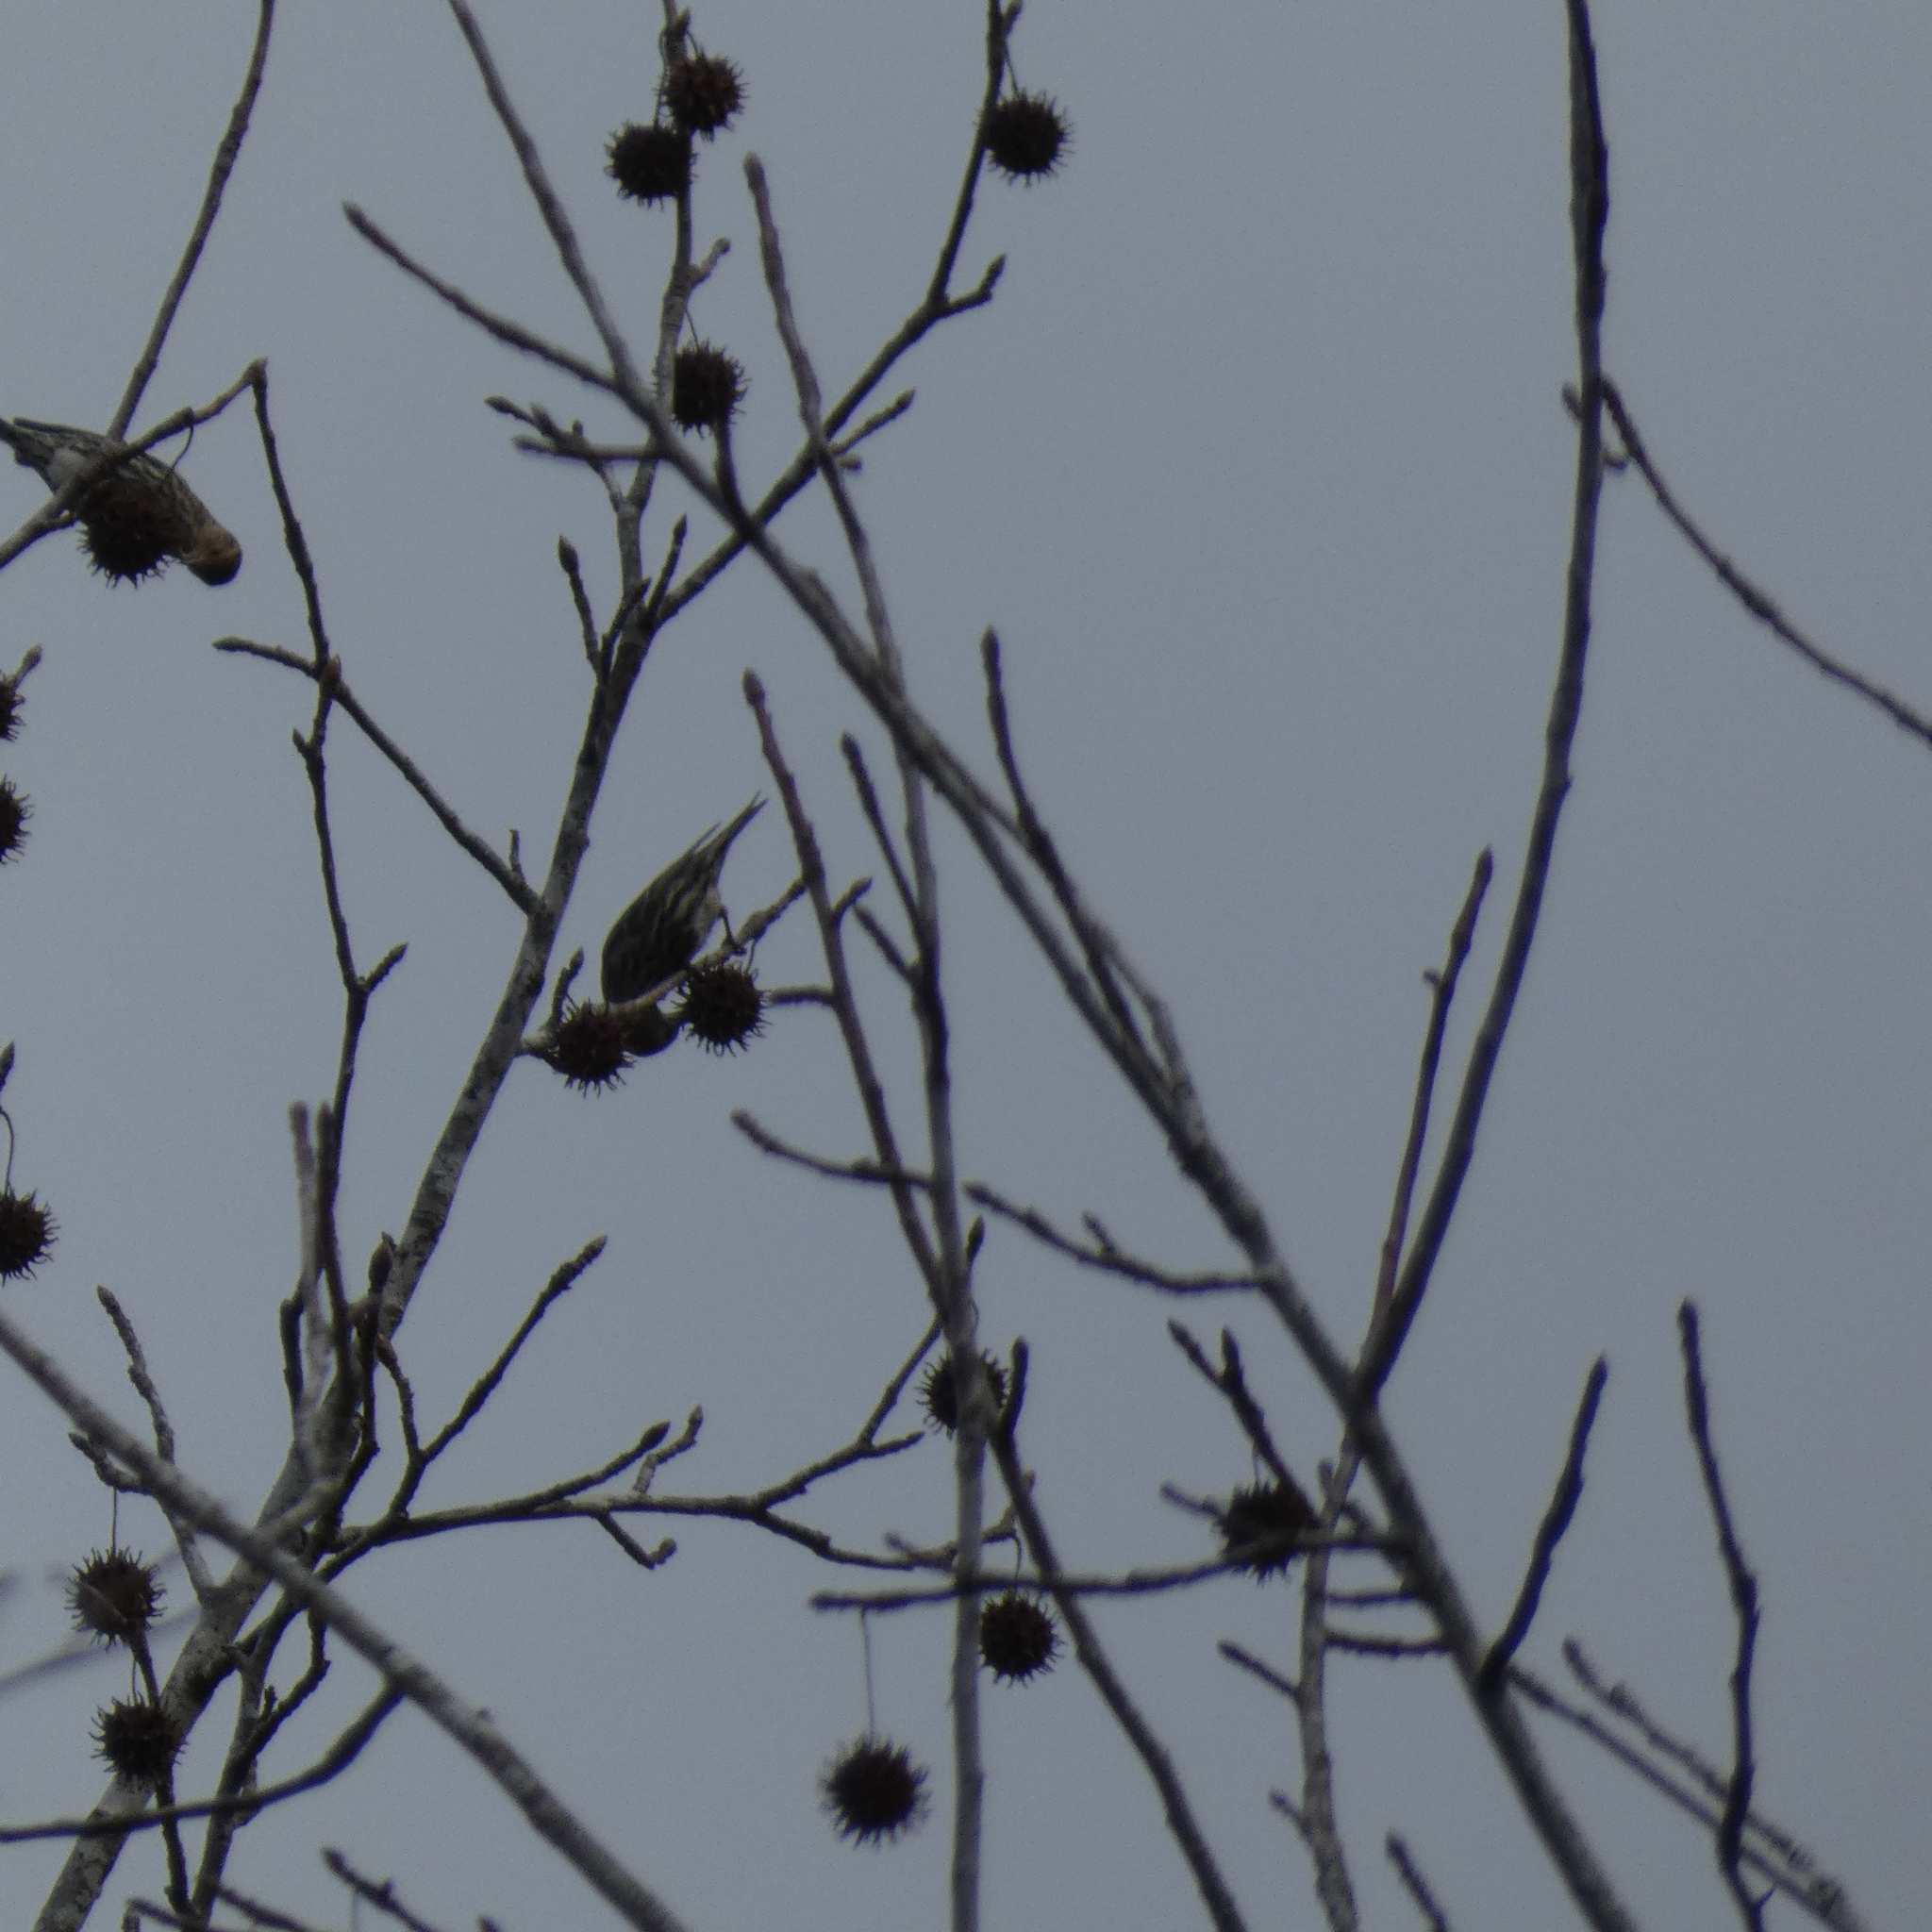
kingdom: Animalia
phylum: Chordata
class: Aves
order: Passeriformes
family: Fringillidae
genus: Spinus
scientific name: Spinus pinus
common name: Pine siskin
